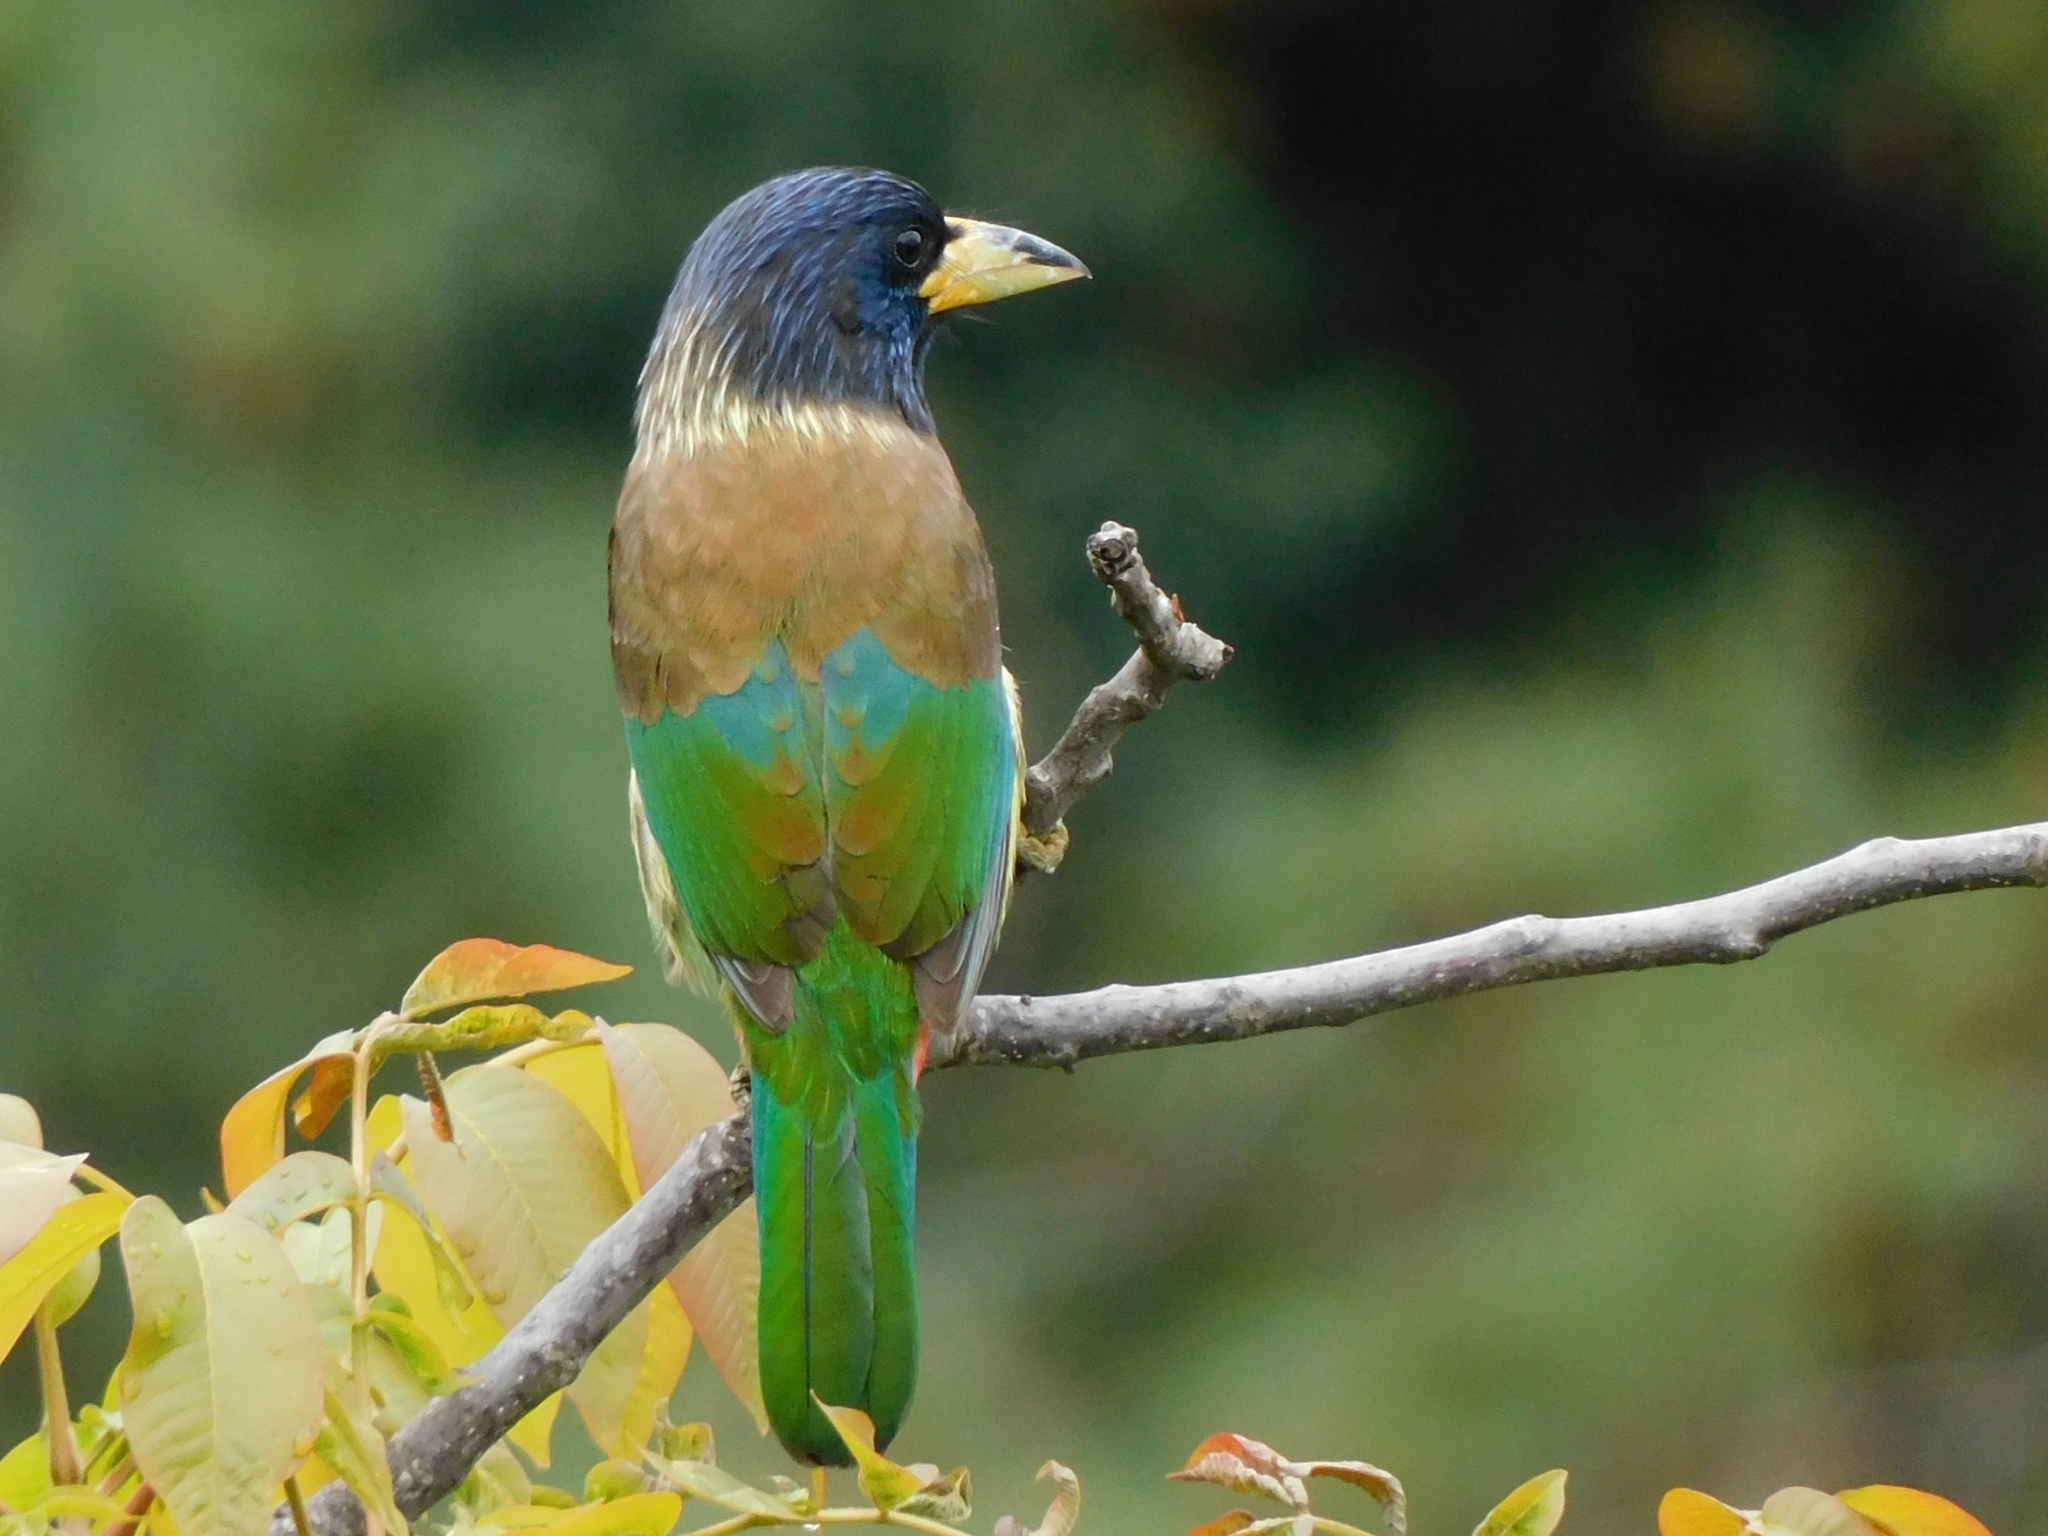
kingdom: Animalia
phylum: Chordata
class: Aves
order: Piciformes
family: Megalaimidae
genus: Psilopogon
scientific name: Psilopogon virens
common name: Great barbet
